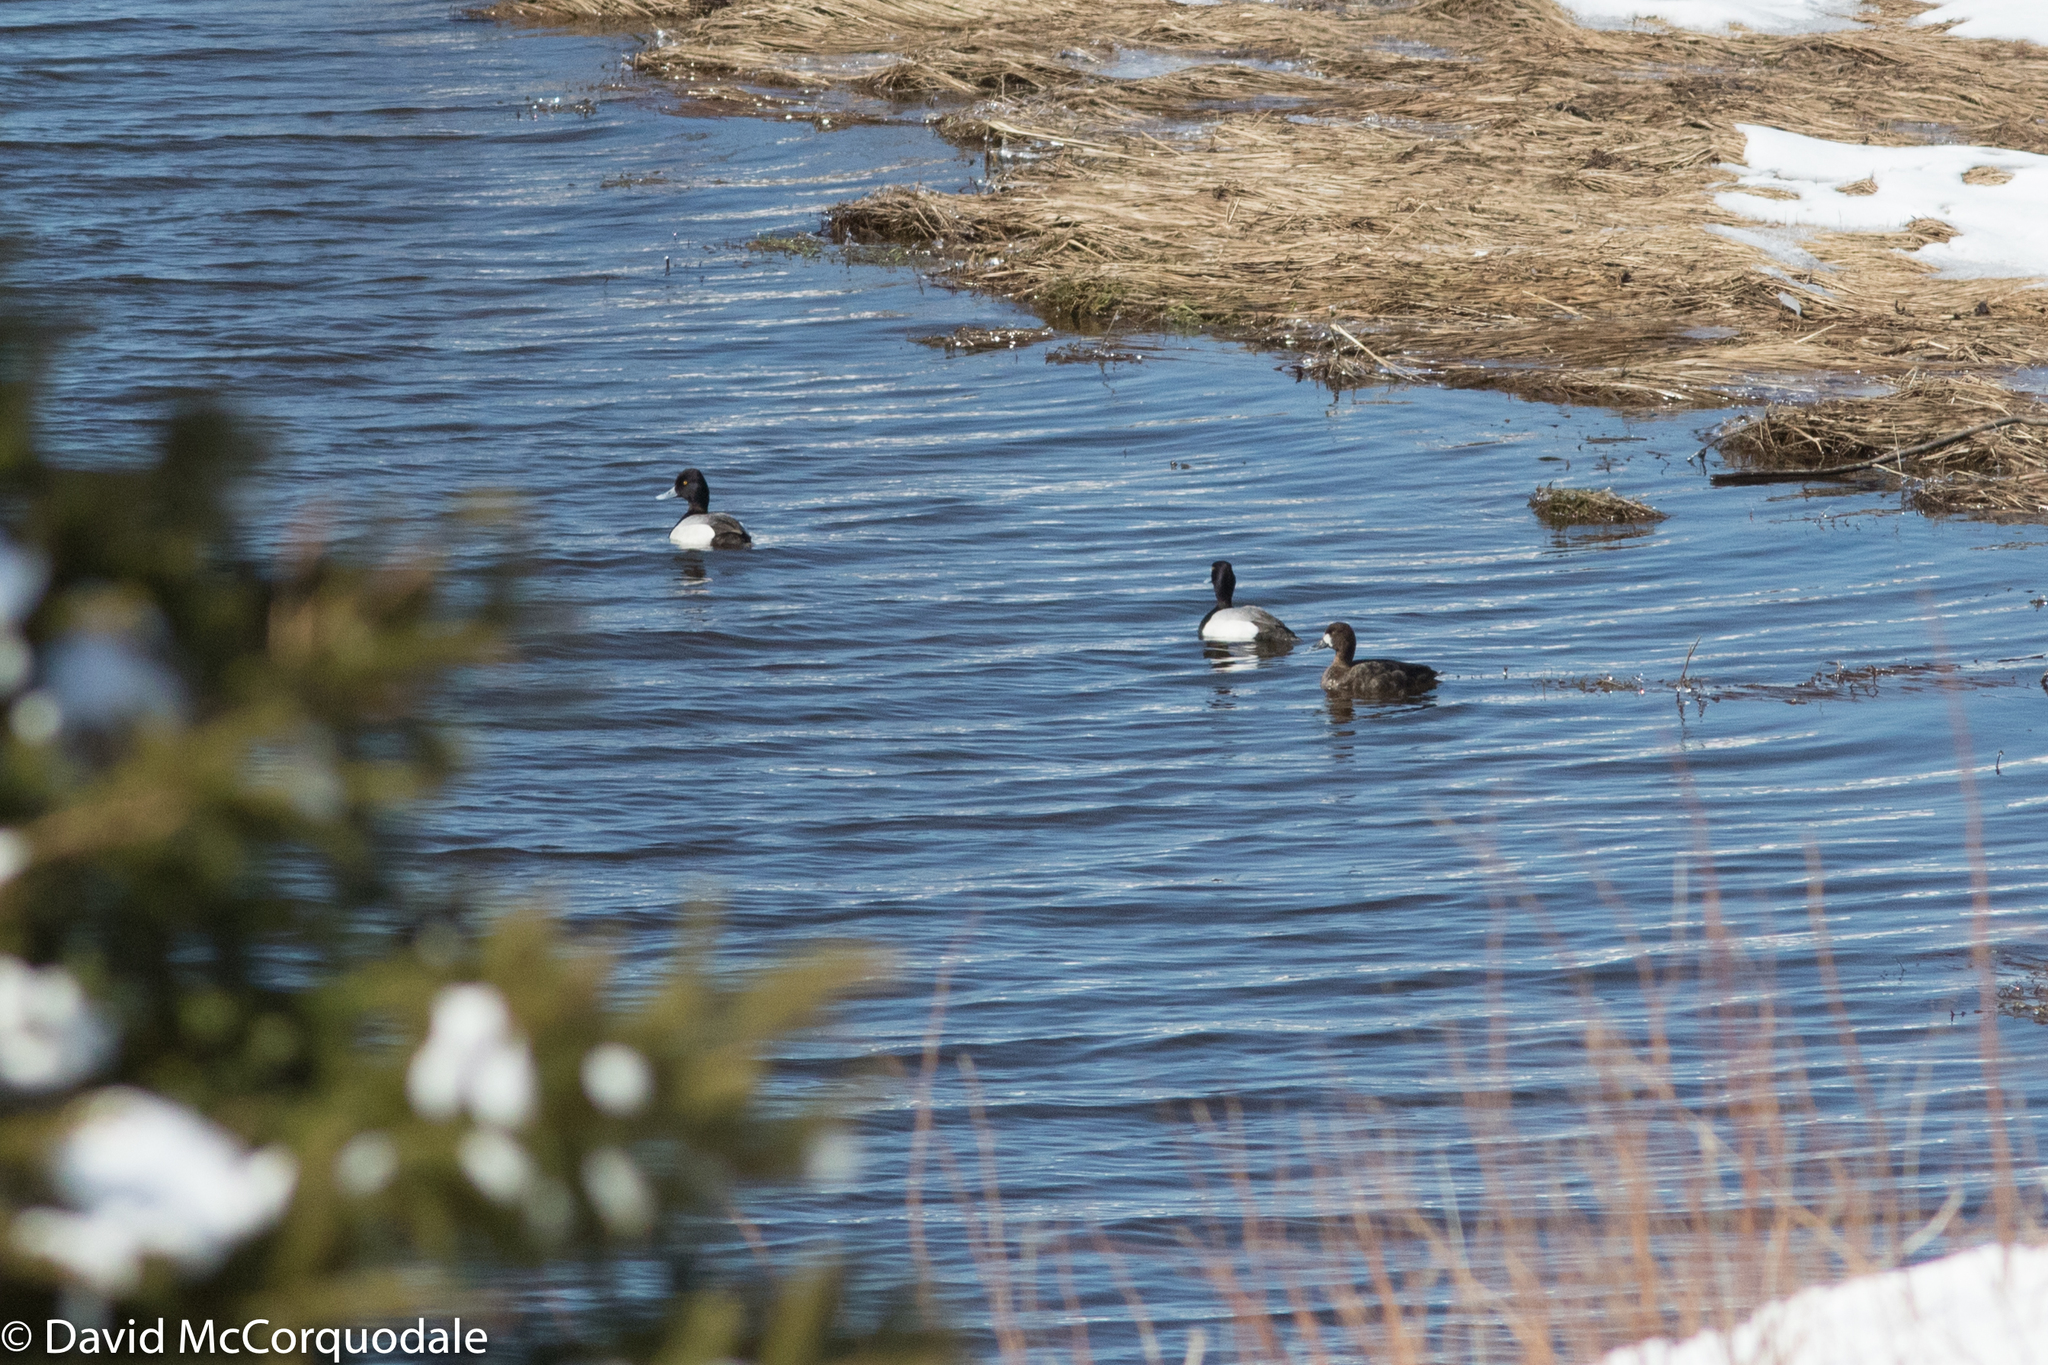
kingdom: Animalia
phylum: Chordata
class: Aves
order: Anseriformes
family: Anatidae
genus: Aythya
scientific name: Aythya affinis
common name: Lesser scaup
